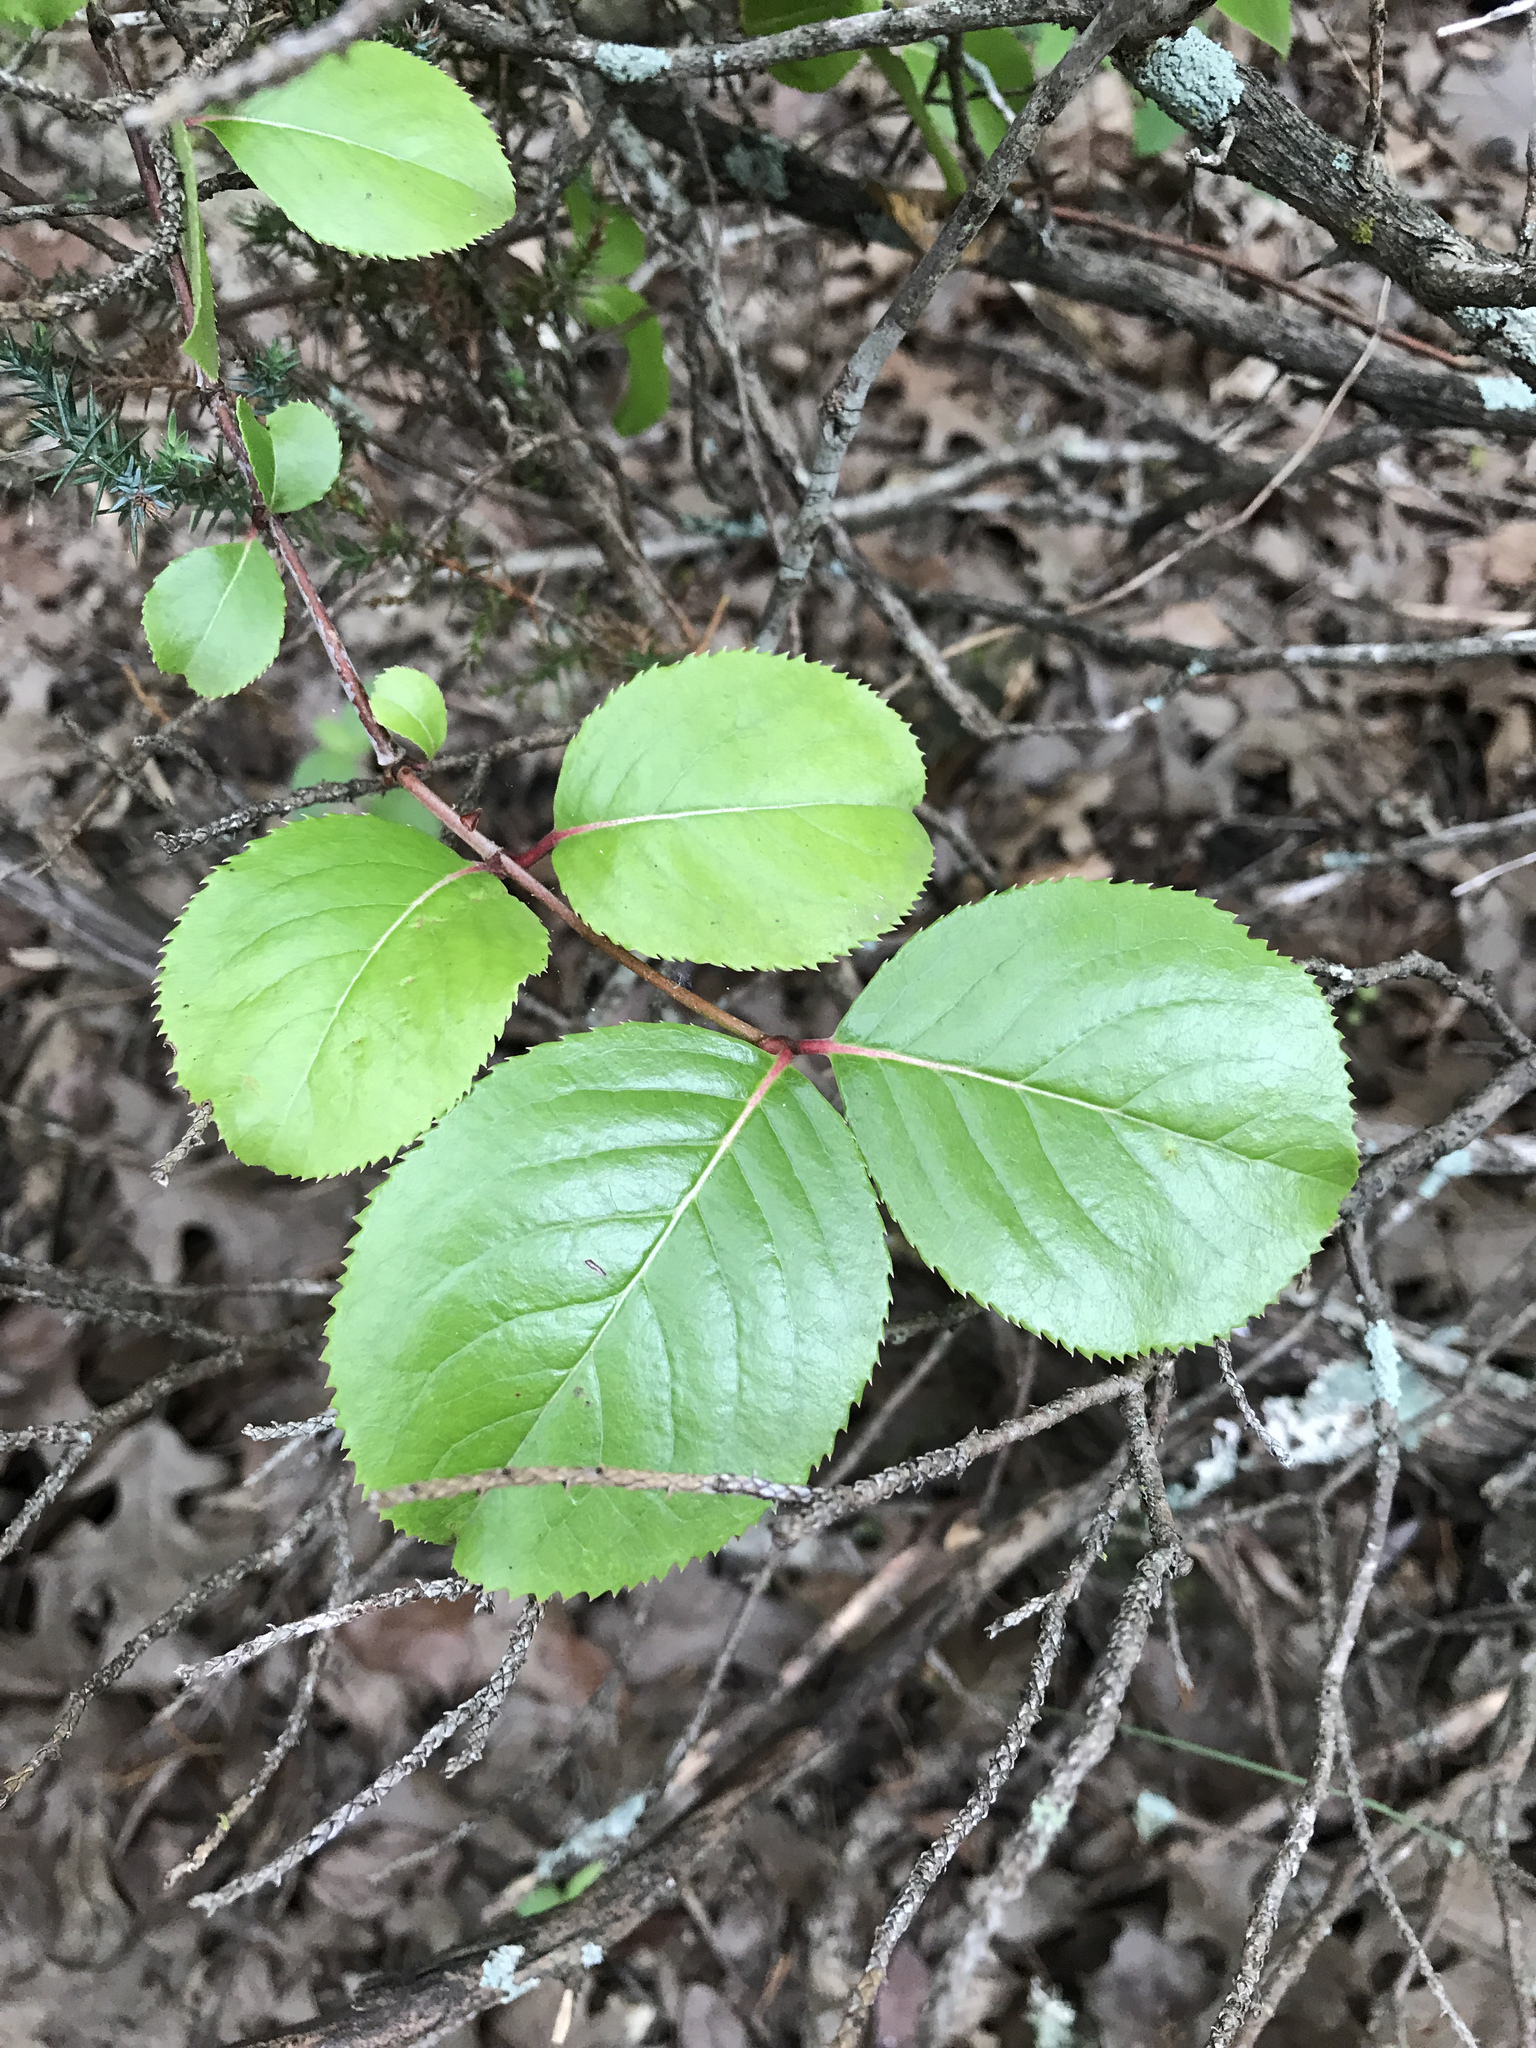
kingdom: Plantae
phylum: Tracheophyta
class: Magnoliopsida
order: Dipsacales
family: Viburnaceae
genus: Viburnum
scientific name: Viburnum rufidulum
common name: Blue haw
